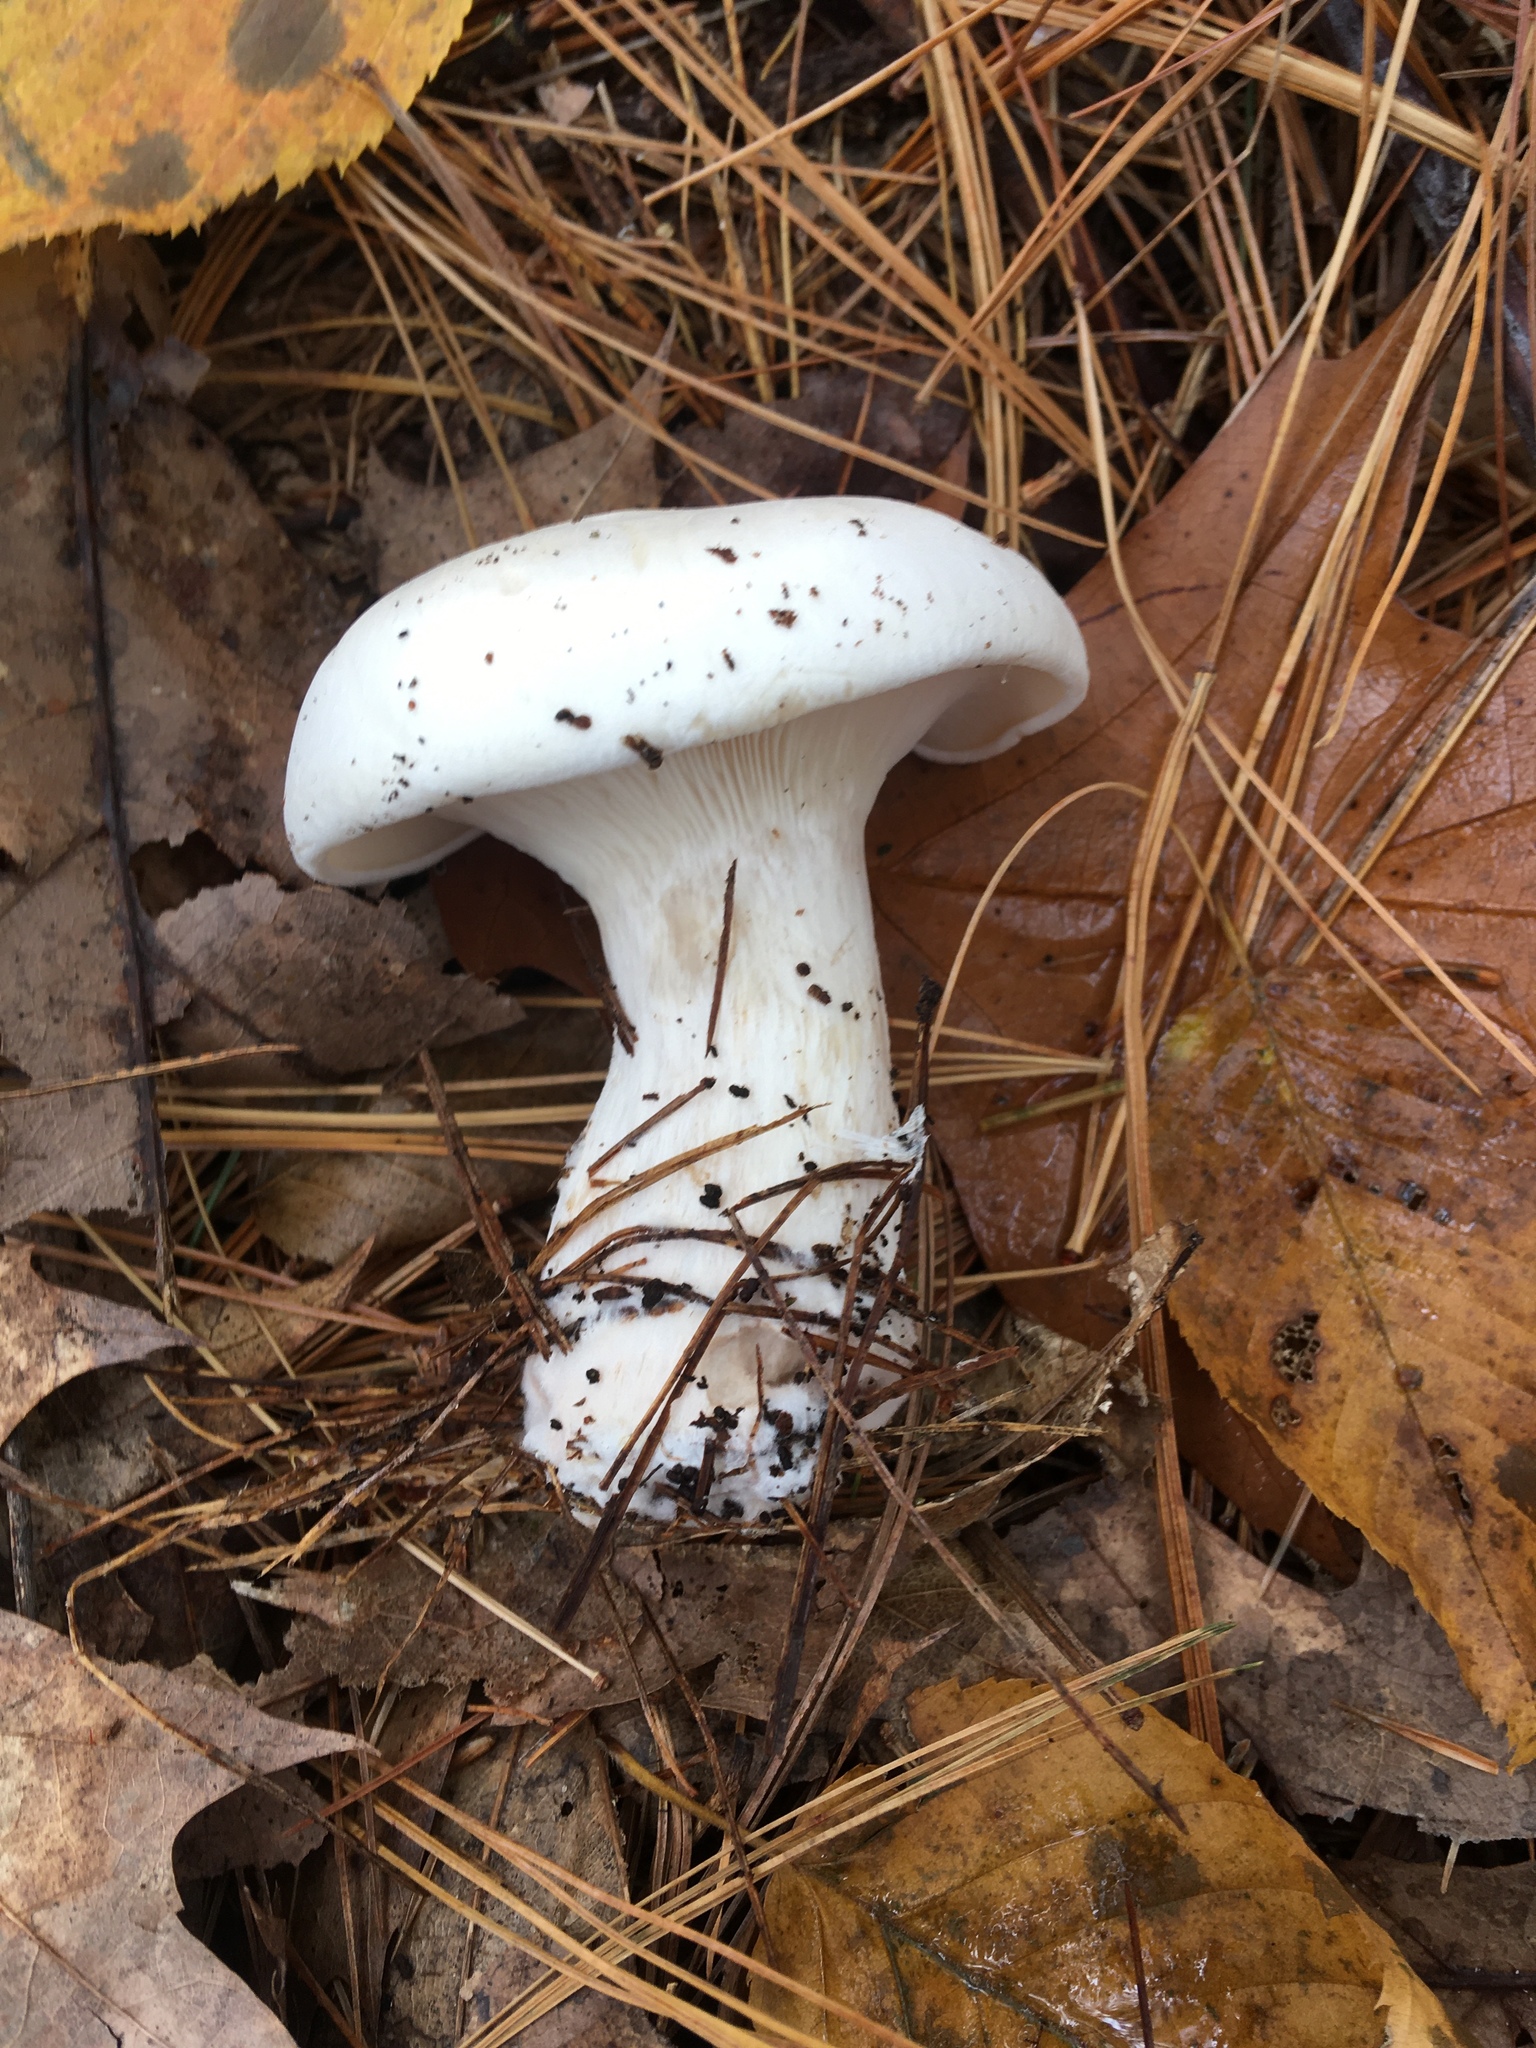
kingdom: Fungi
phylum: Basidiomycota
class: Agaricomycetes
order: Agaricales
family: Tricholomataceae
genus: Clitocybe
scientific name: Clitocybe robusta
